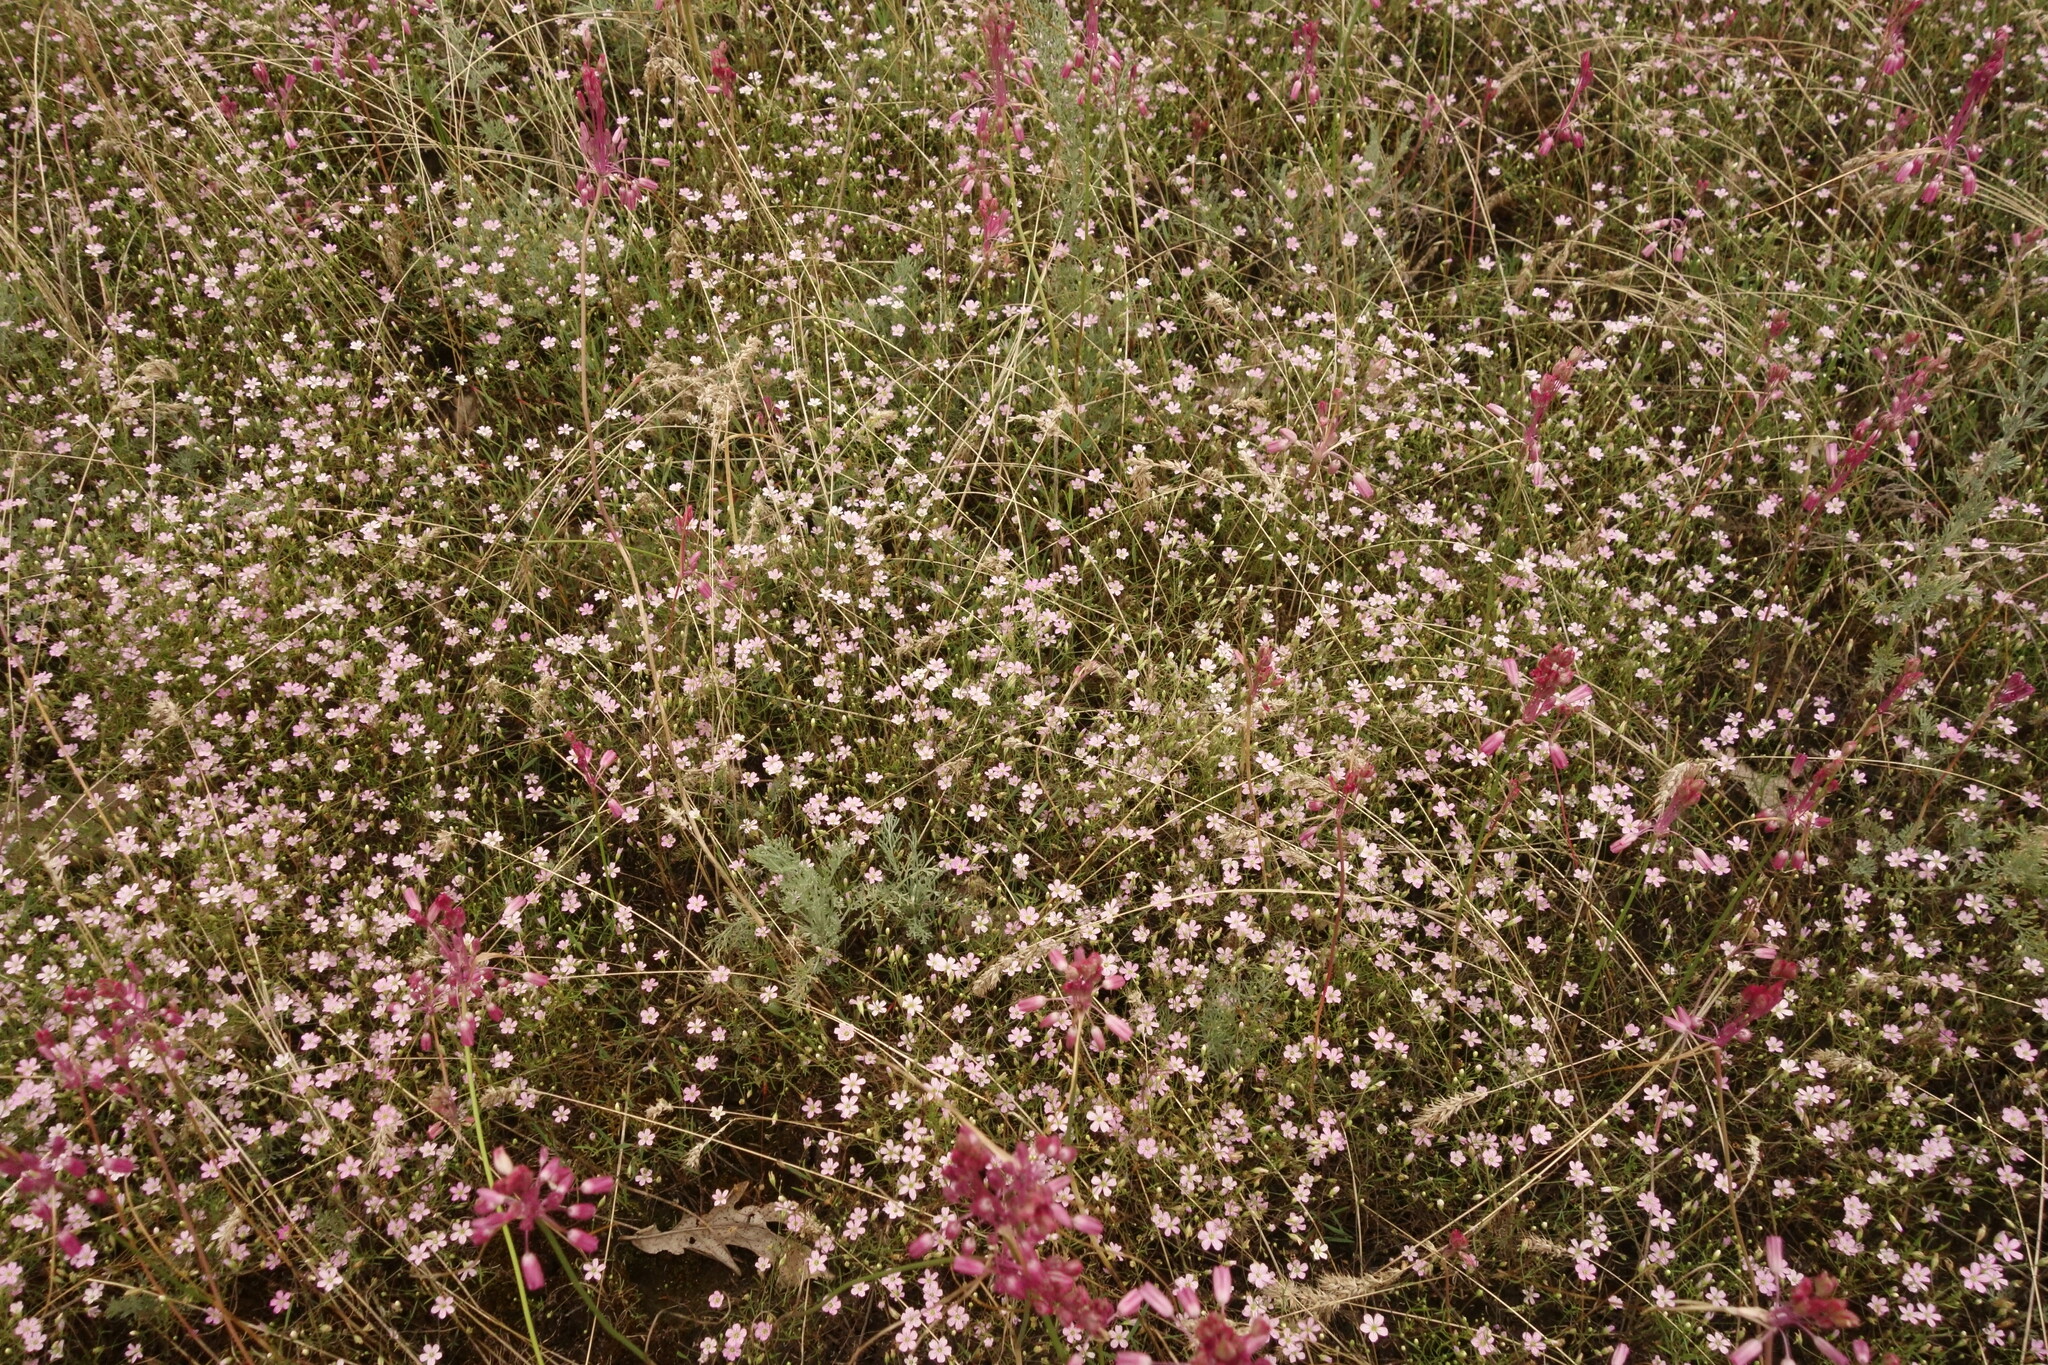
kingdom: Plantae
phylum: Tracheophyta
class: Magnoliopsida
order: Caryophyllales
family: Caryophyllaceae
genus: Psammophiliella
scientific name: Psammophiliella muralis
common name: Cushion baby's-breath
